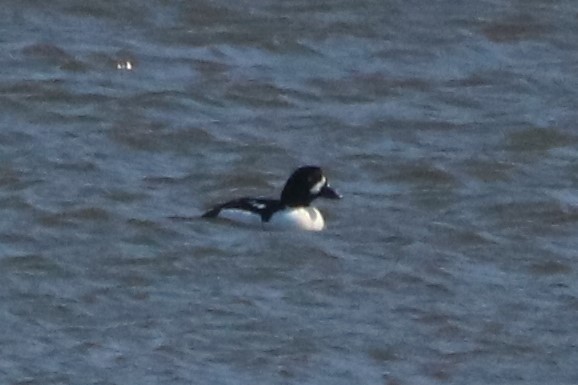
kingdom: Animalia
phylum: Chordata
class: Aves
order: Anseriformes
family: Anatidae
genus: Bucephala
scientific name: Bucephala islandica
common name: Barrow's goldeneye
